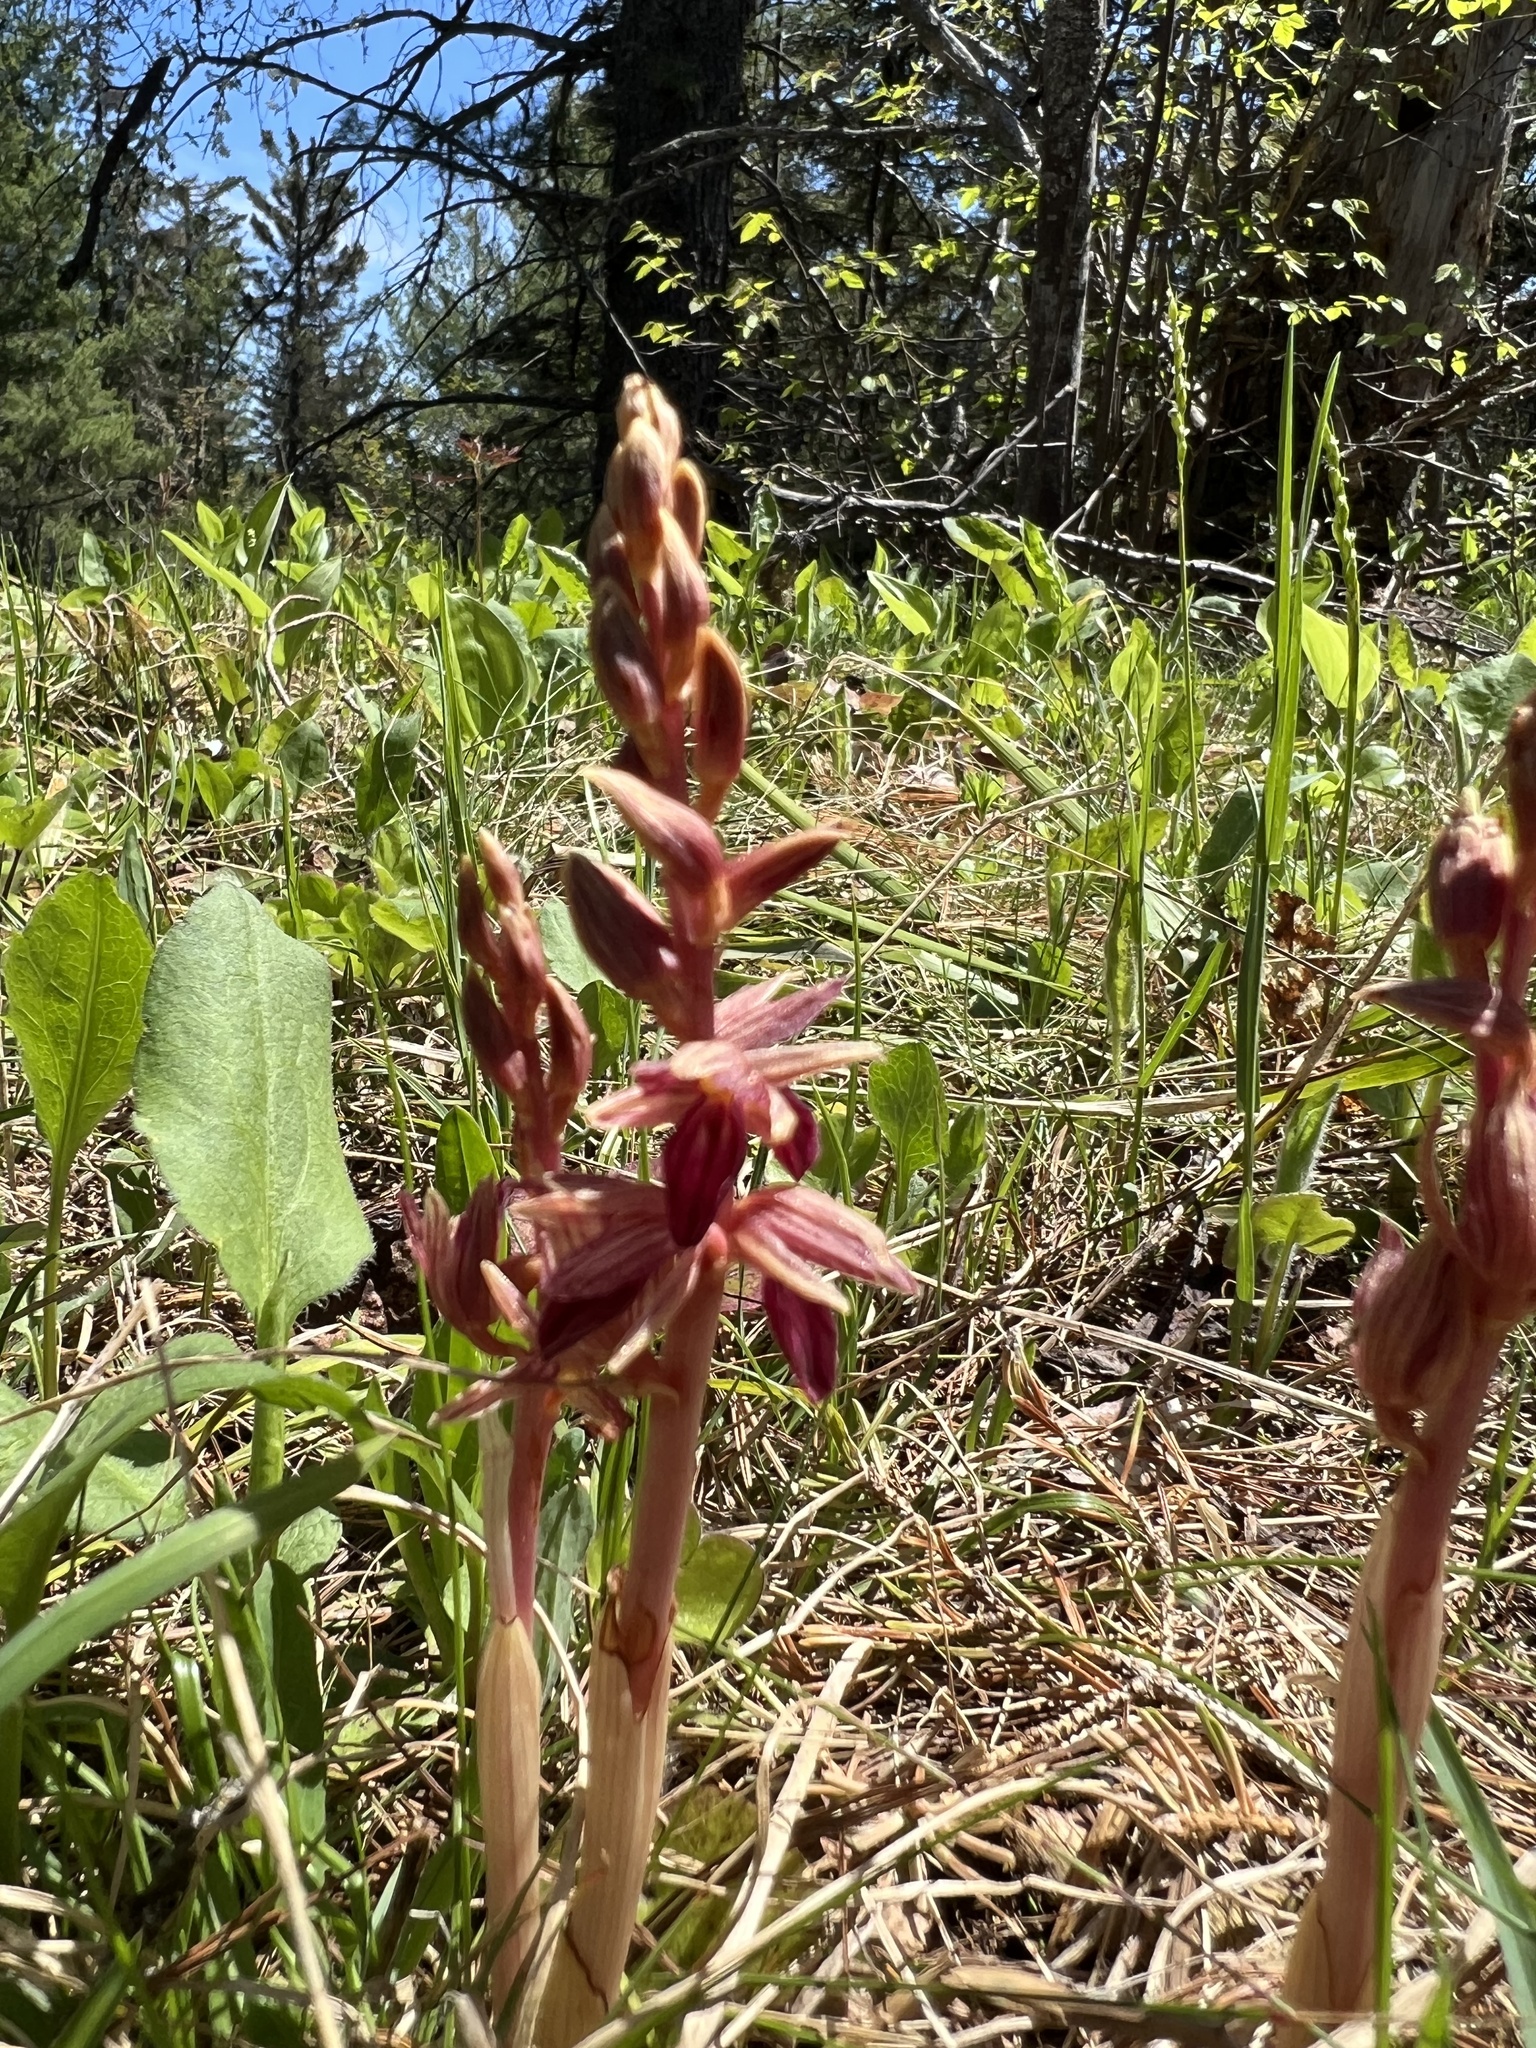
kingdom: Plantae
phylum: Tracheophyta
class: Liliopsida
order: Asparagales
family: Orchidaceae
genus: Corallorhiza
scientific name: Corallorhiza striata
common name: Hooded coralroot
